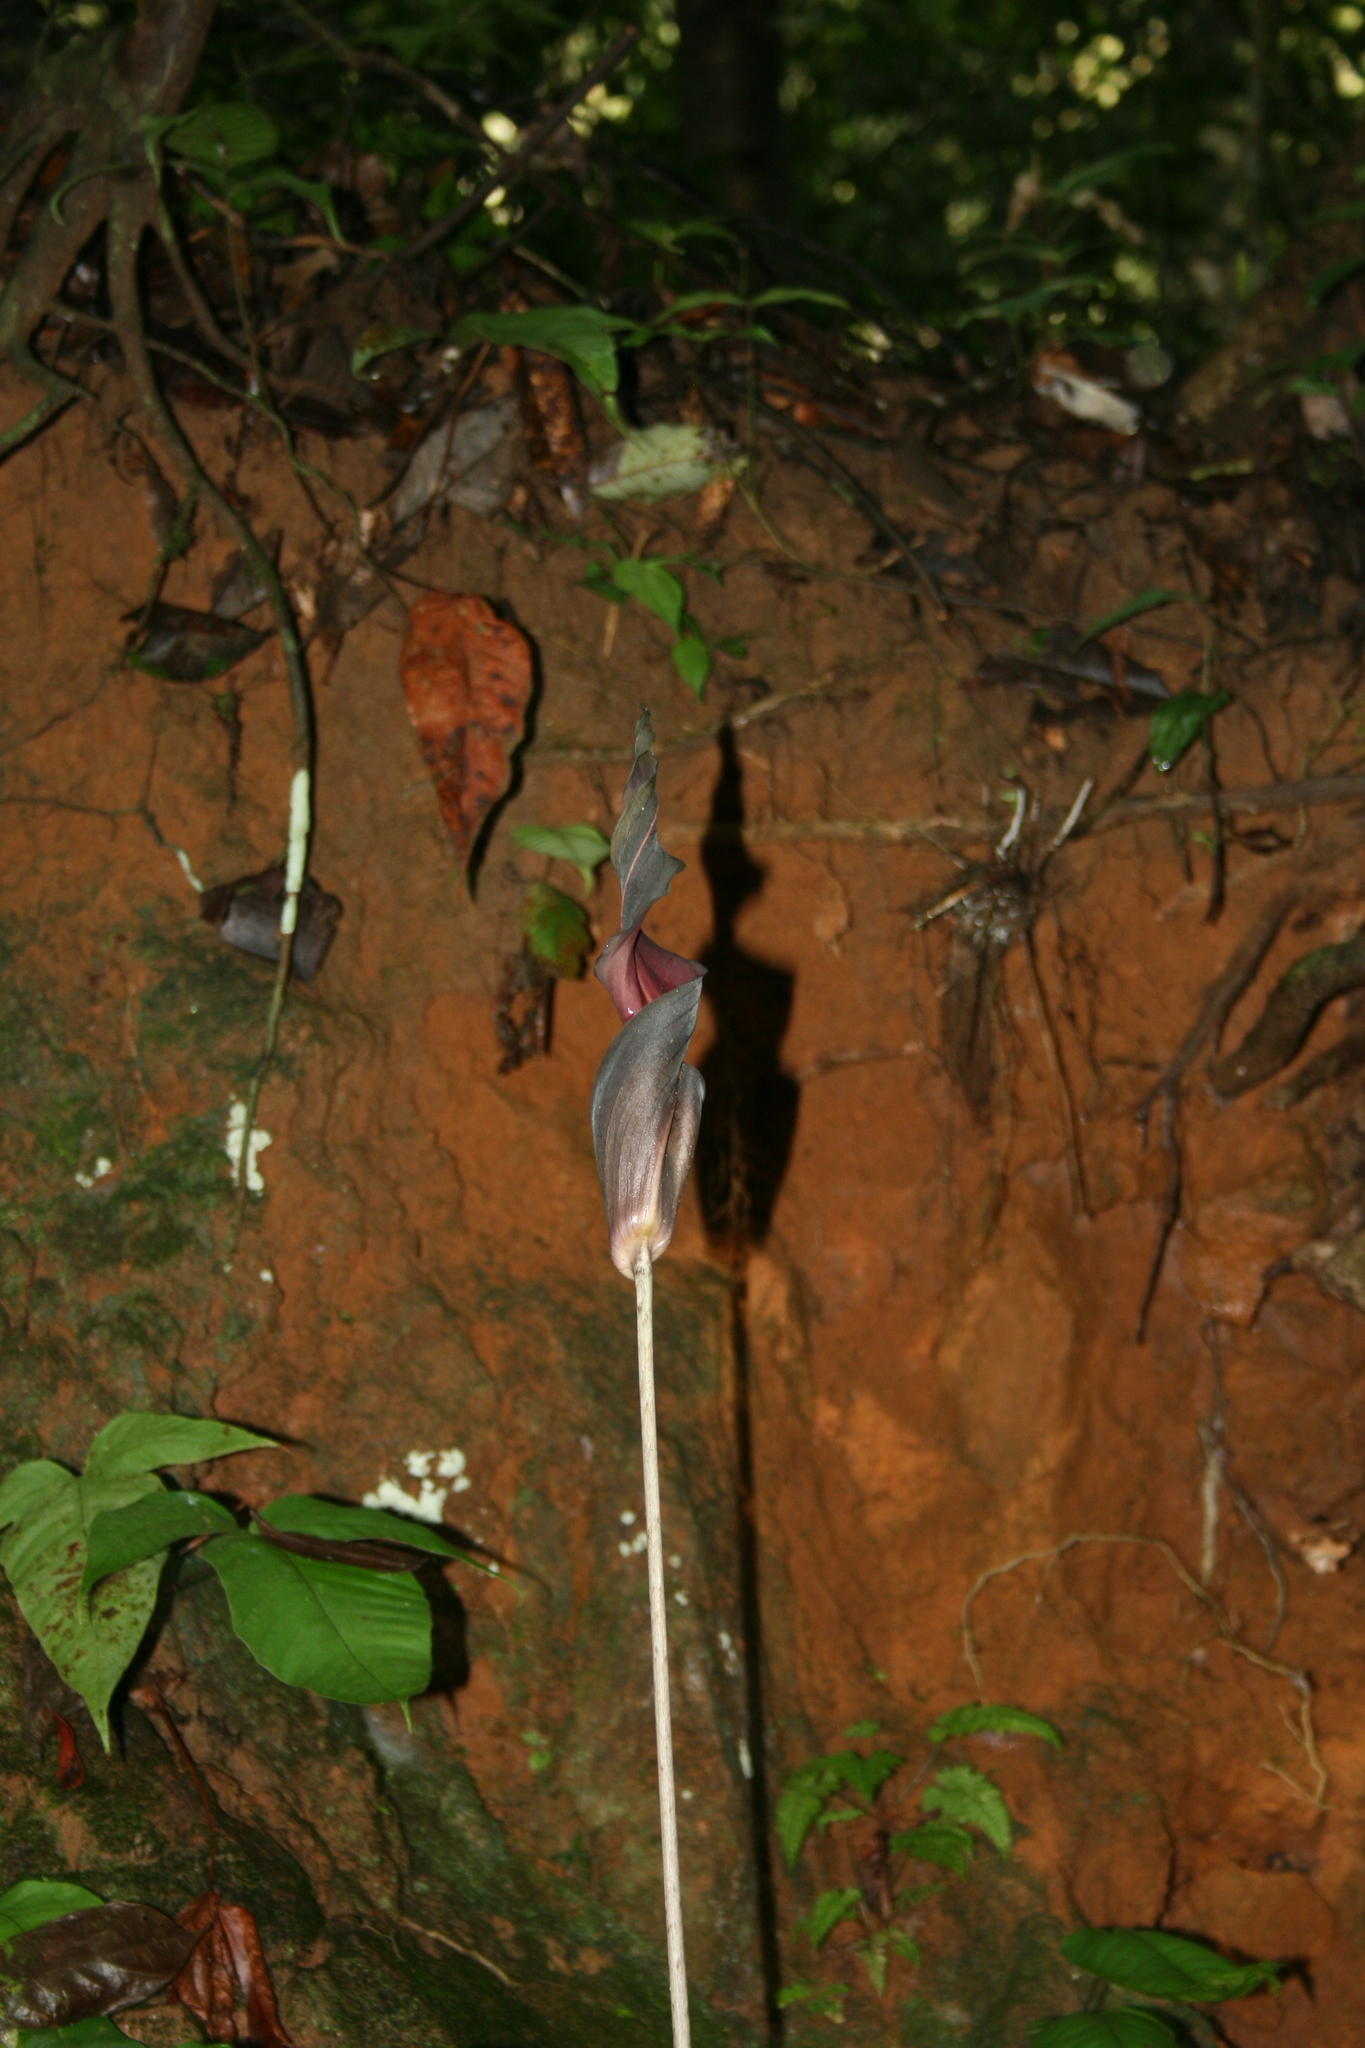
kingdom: Plantae
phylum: Tracheophyta
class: Liliopsida
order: Alismatales
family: Araceae
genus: Anaphyllum
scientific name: Anaphyllum wightii
